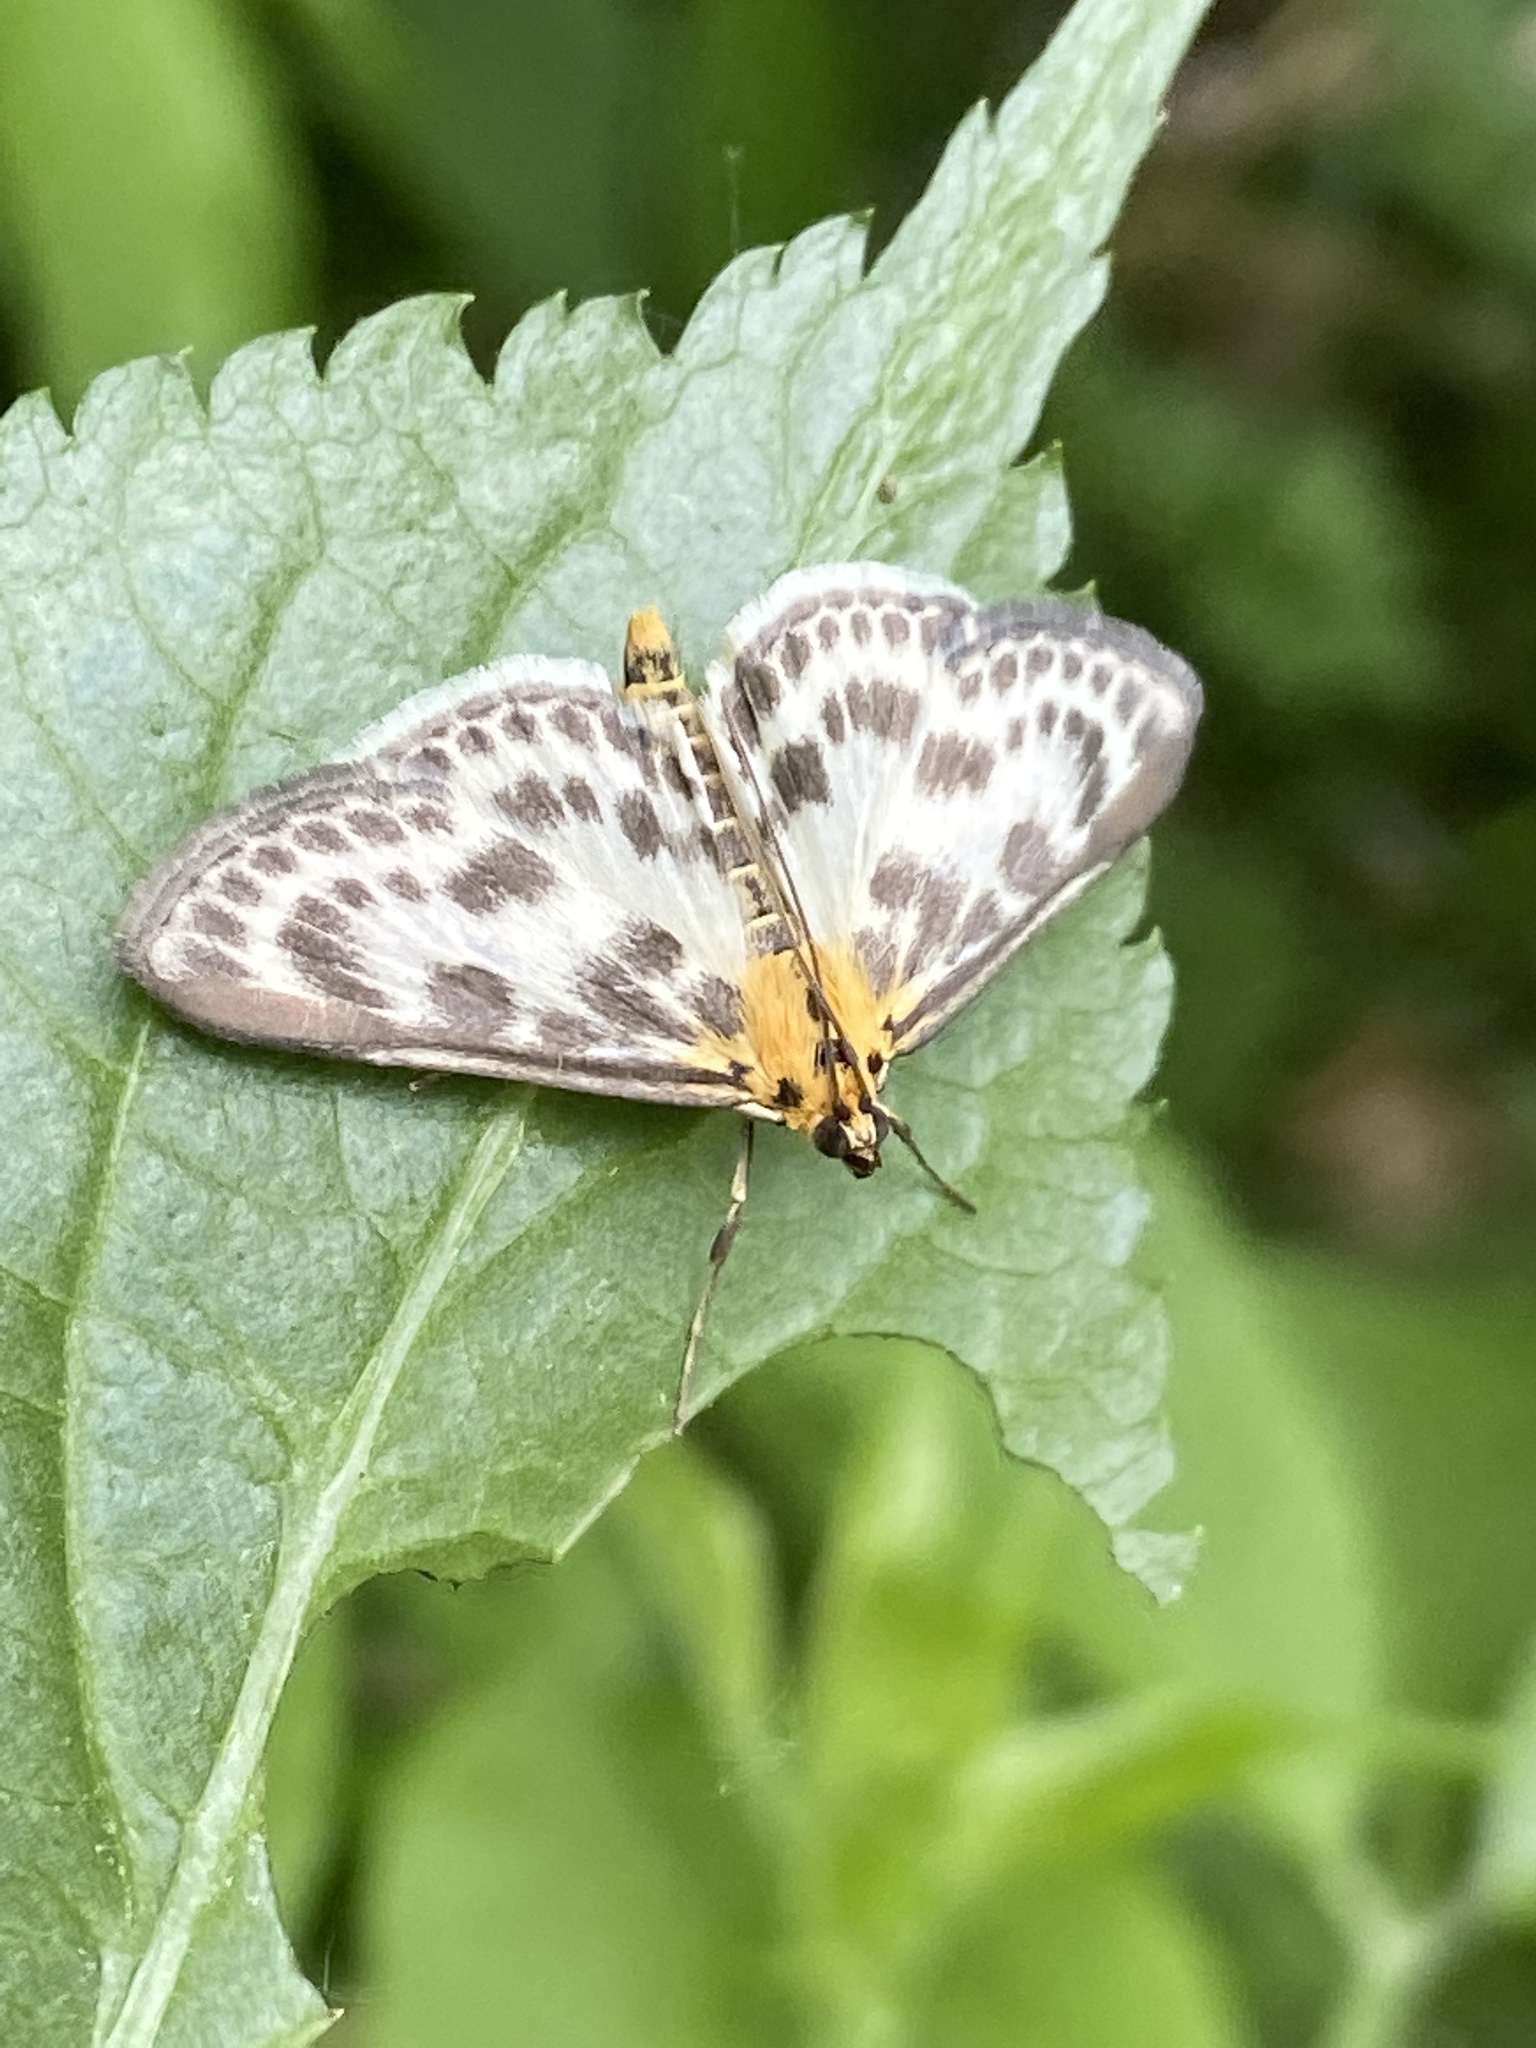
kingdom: Animalia
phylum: Arthropoda
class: Insecta
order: Lepidoptera
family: Crambidae
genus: Anania
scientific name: Anania hortulata
